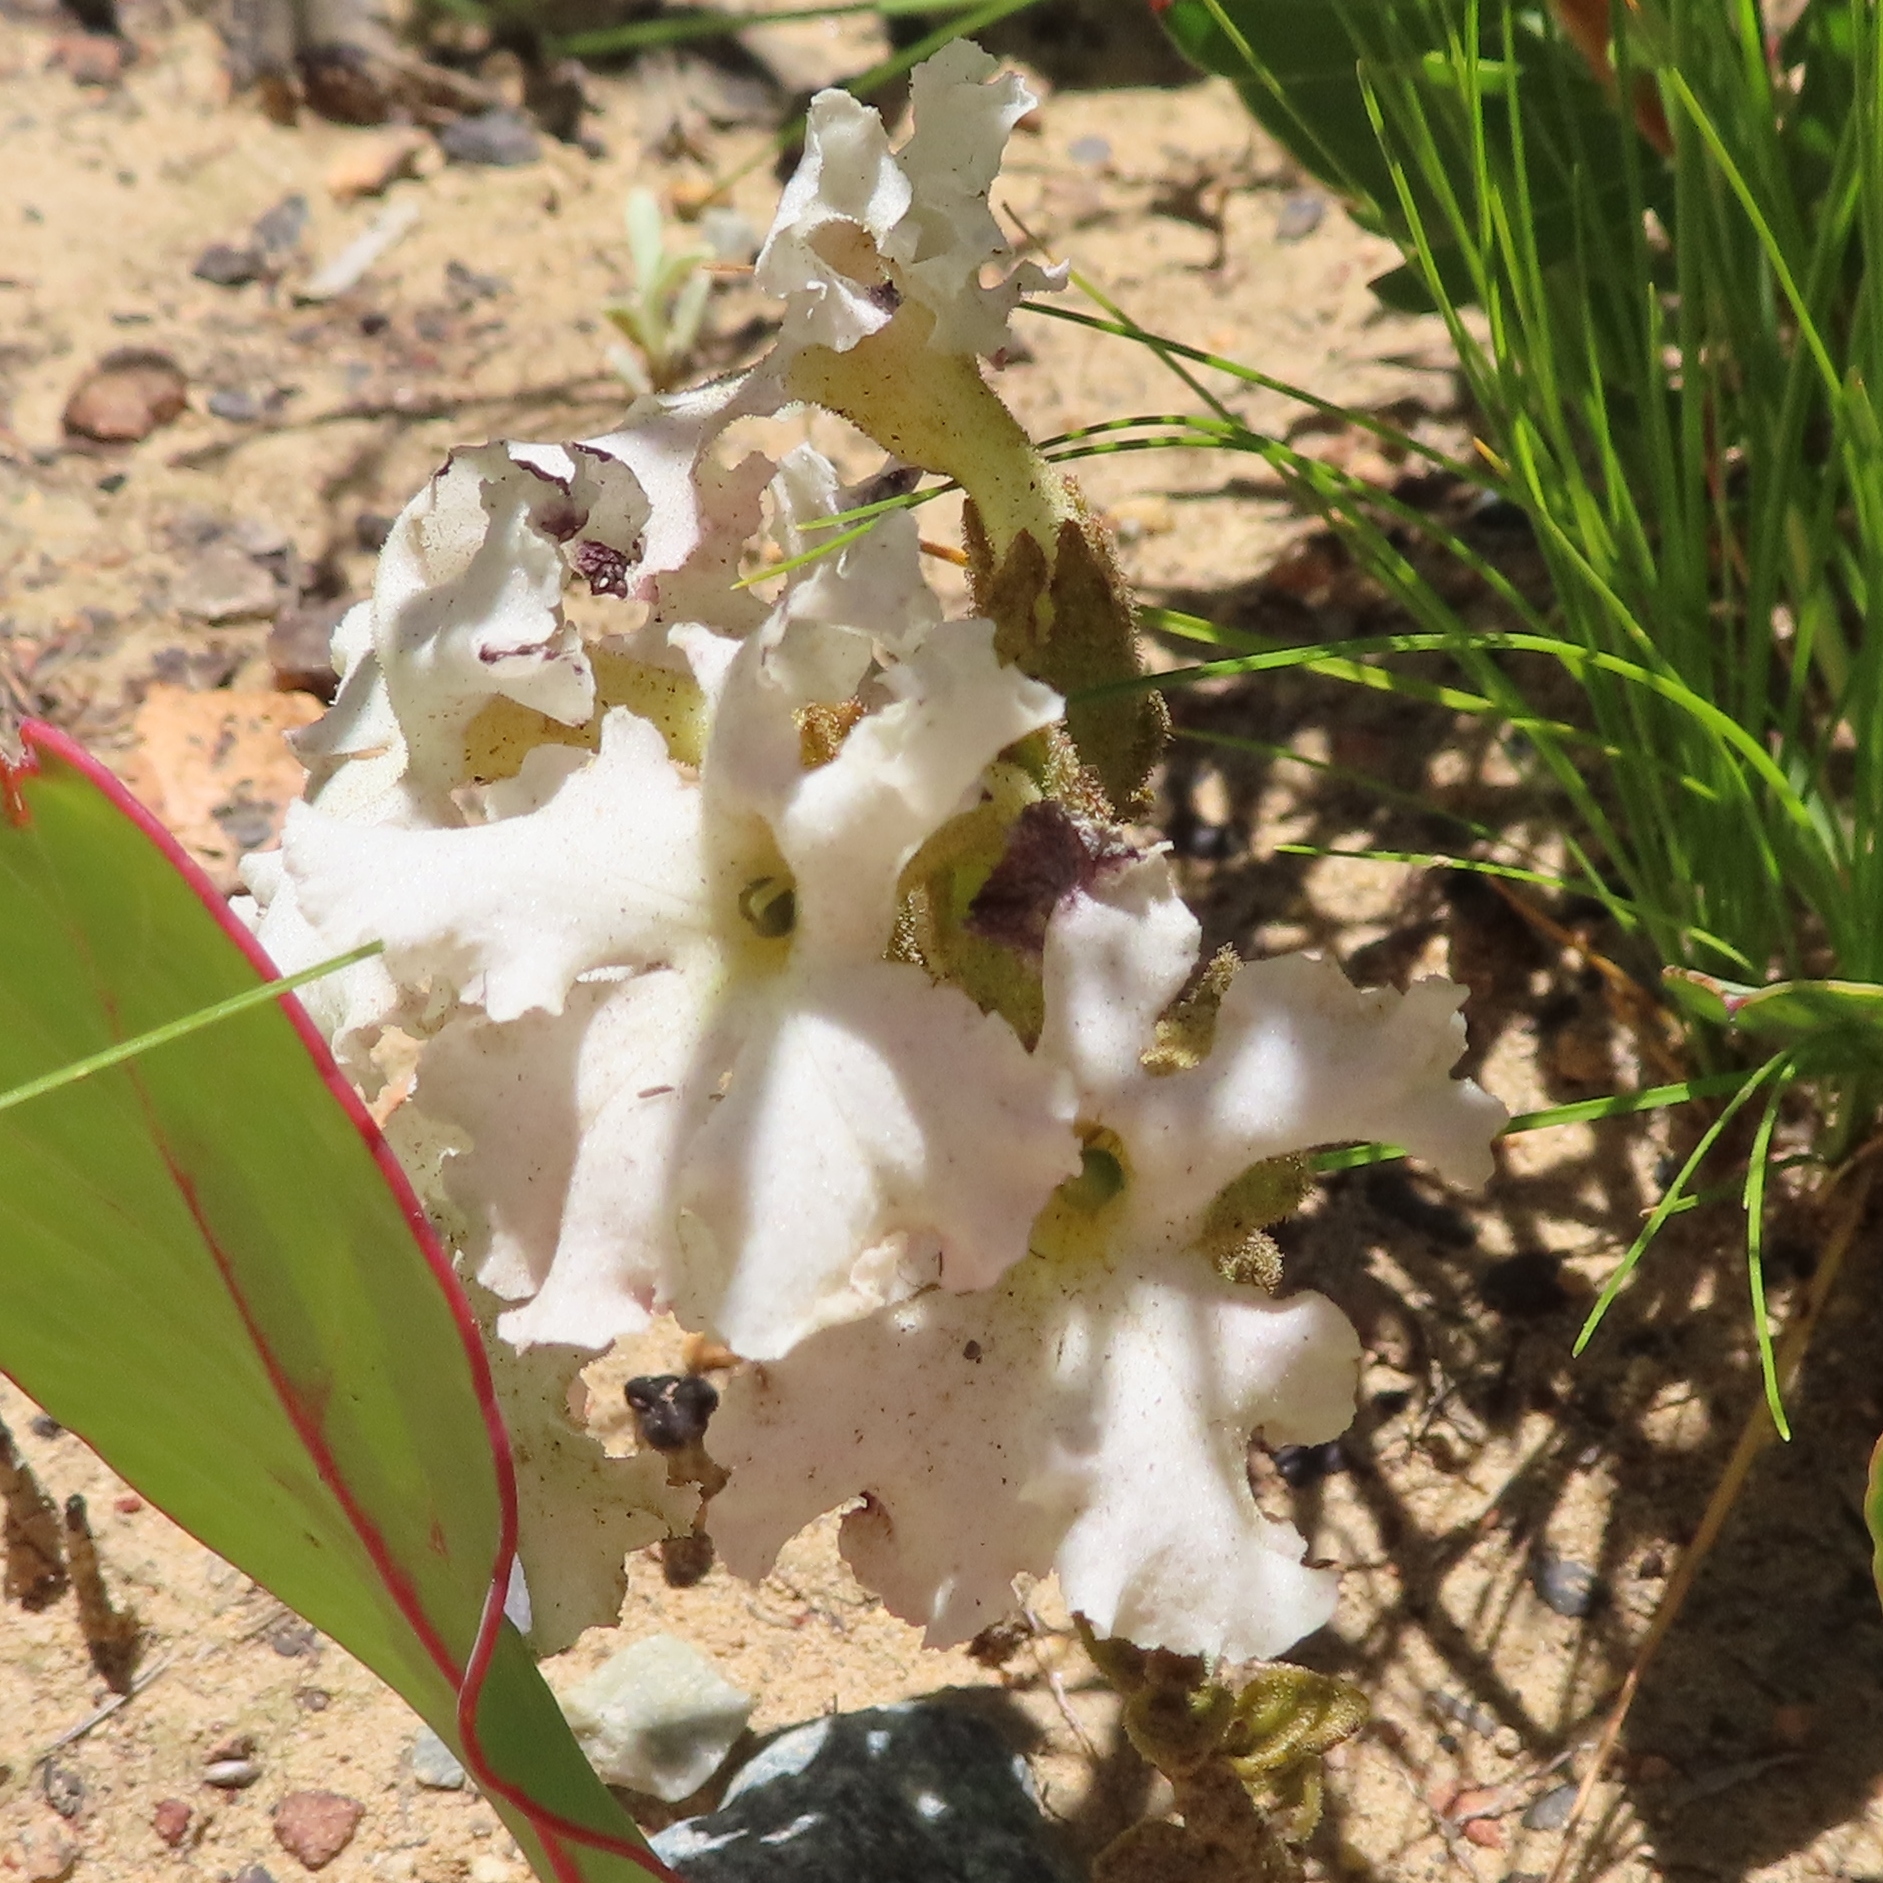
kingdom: Plantae
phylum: Tracheophyta
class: Magnoliopsida
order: Lamiales
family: Orobanchaceae
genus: Harveya
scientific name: Harveya capensis
